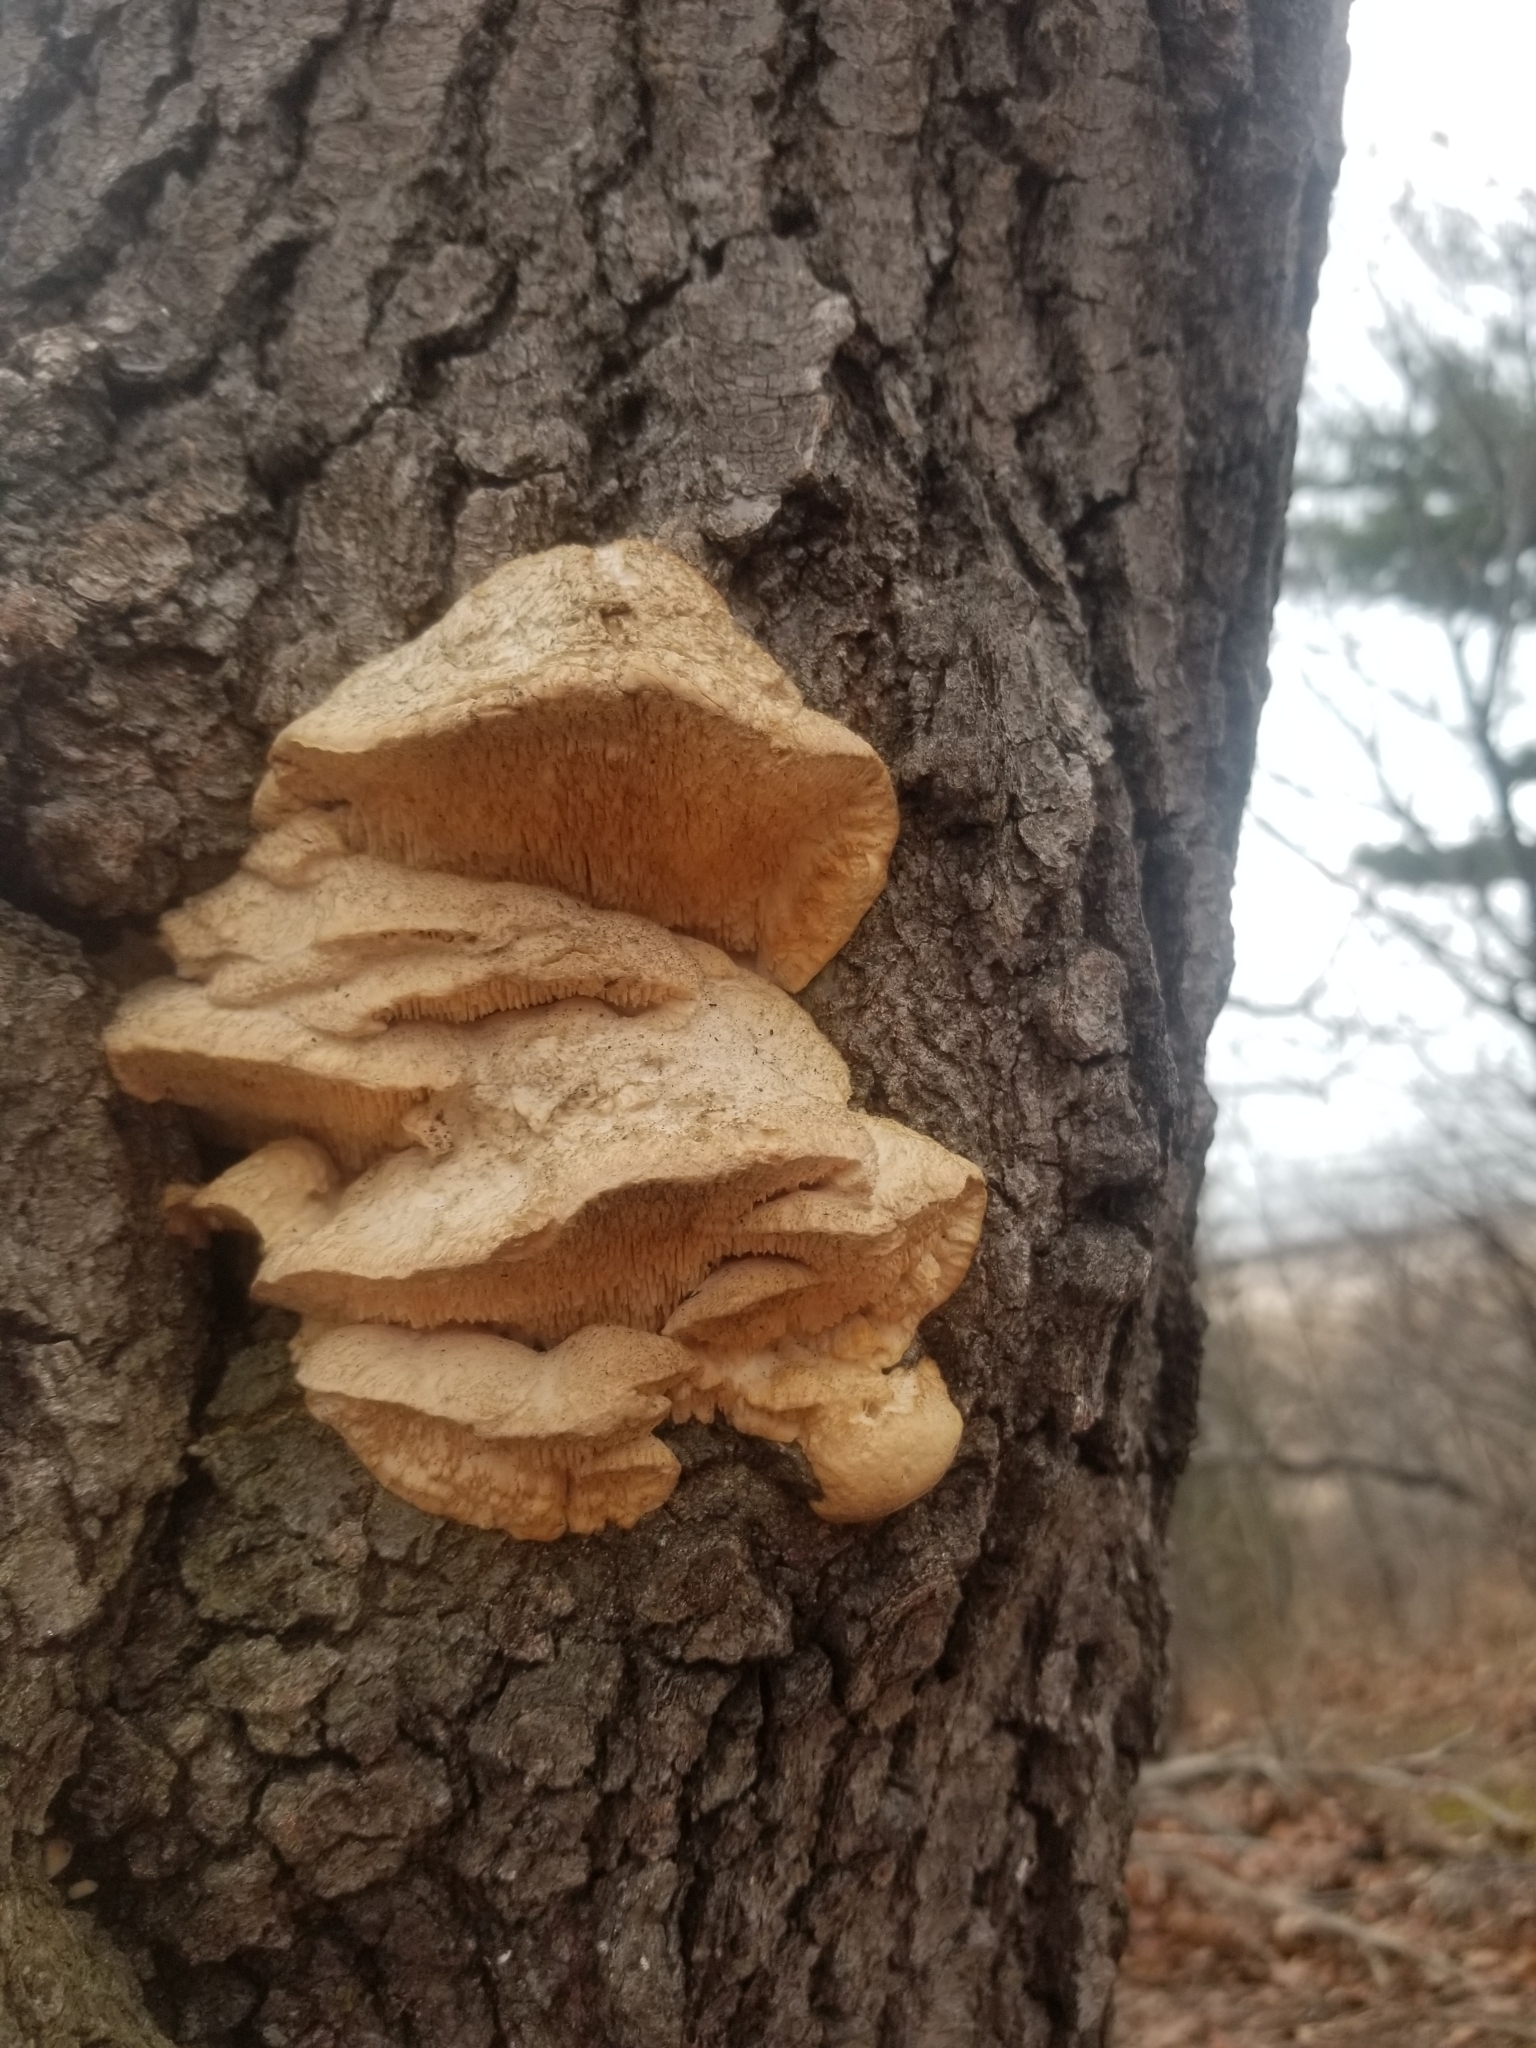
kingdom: Fungi
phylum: Basidiomycota
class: Agaricomycetes
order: Polyporales
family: Fomitopsidaceae
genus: Fomitopsis
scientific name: Fomitopsis
